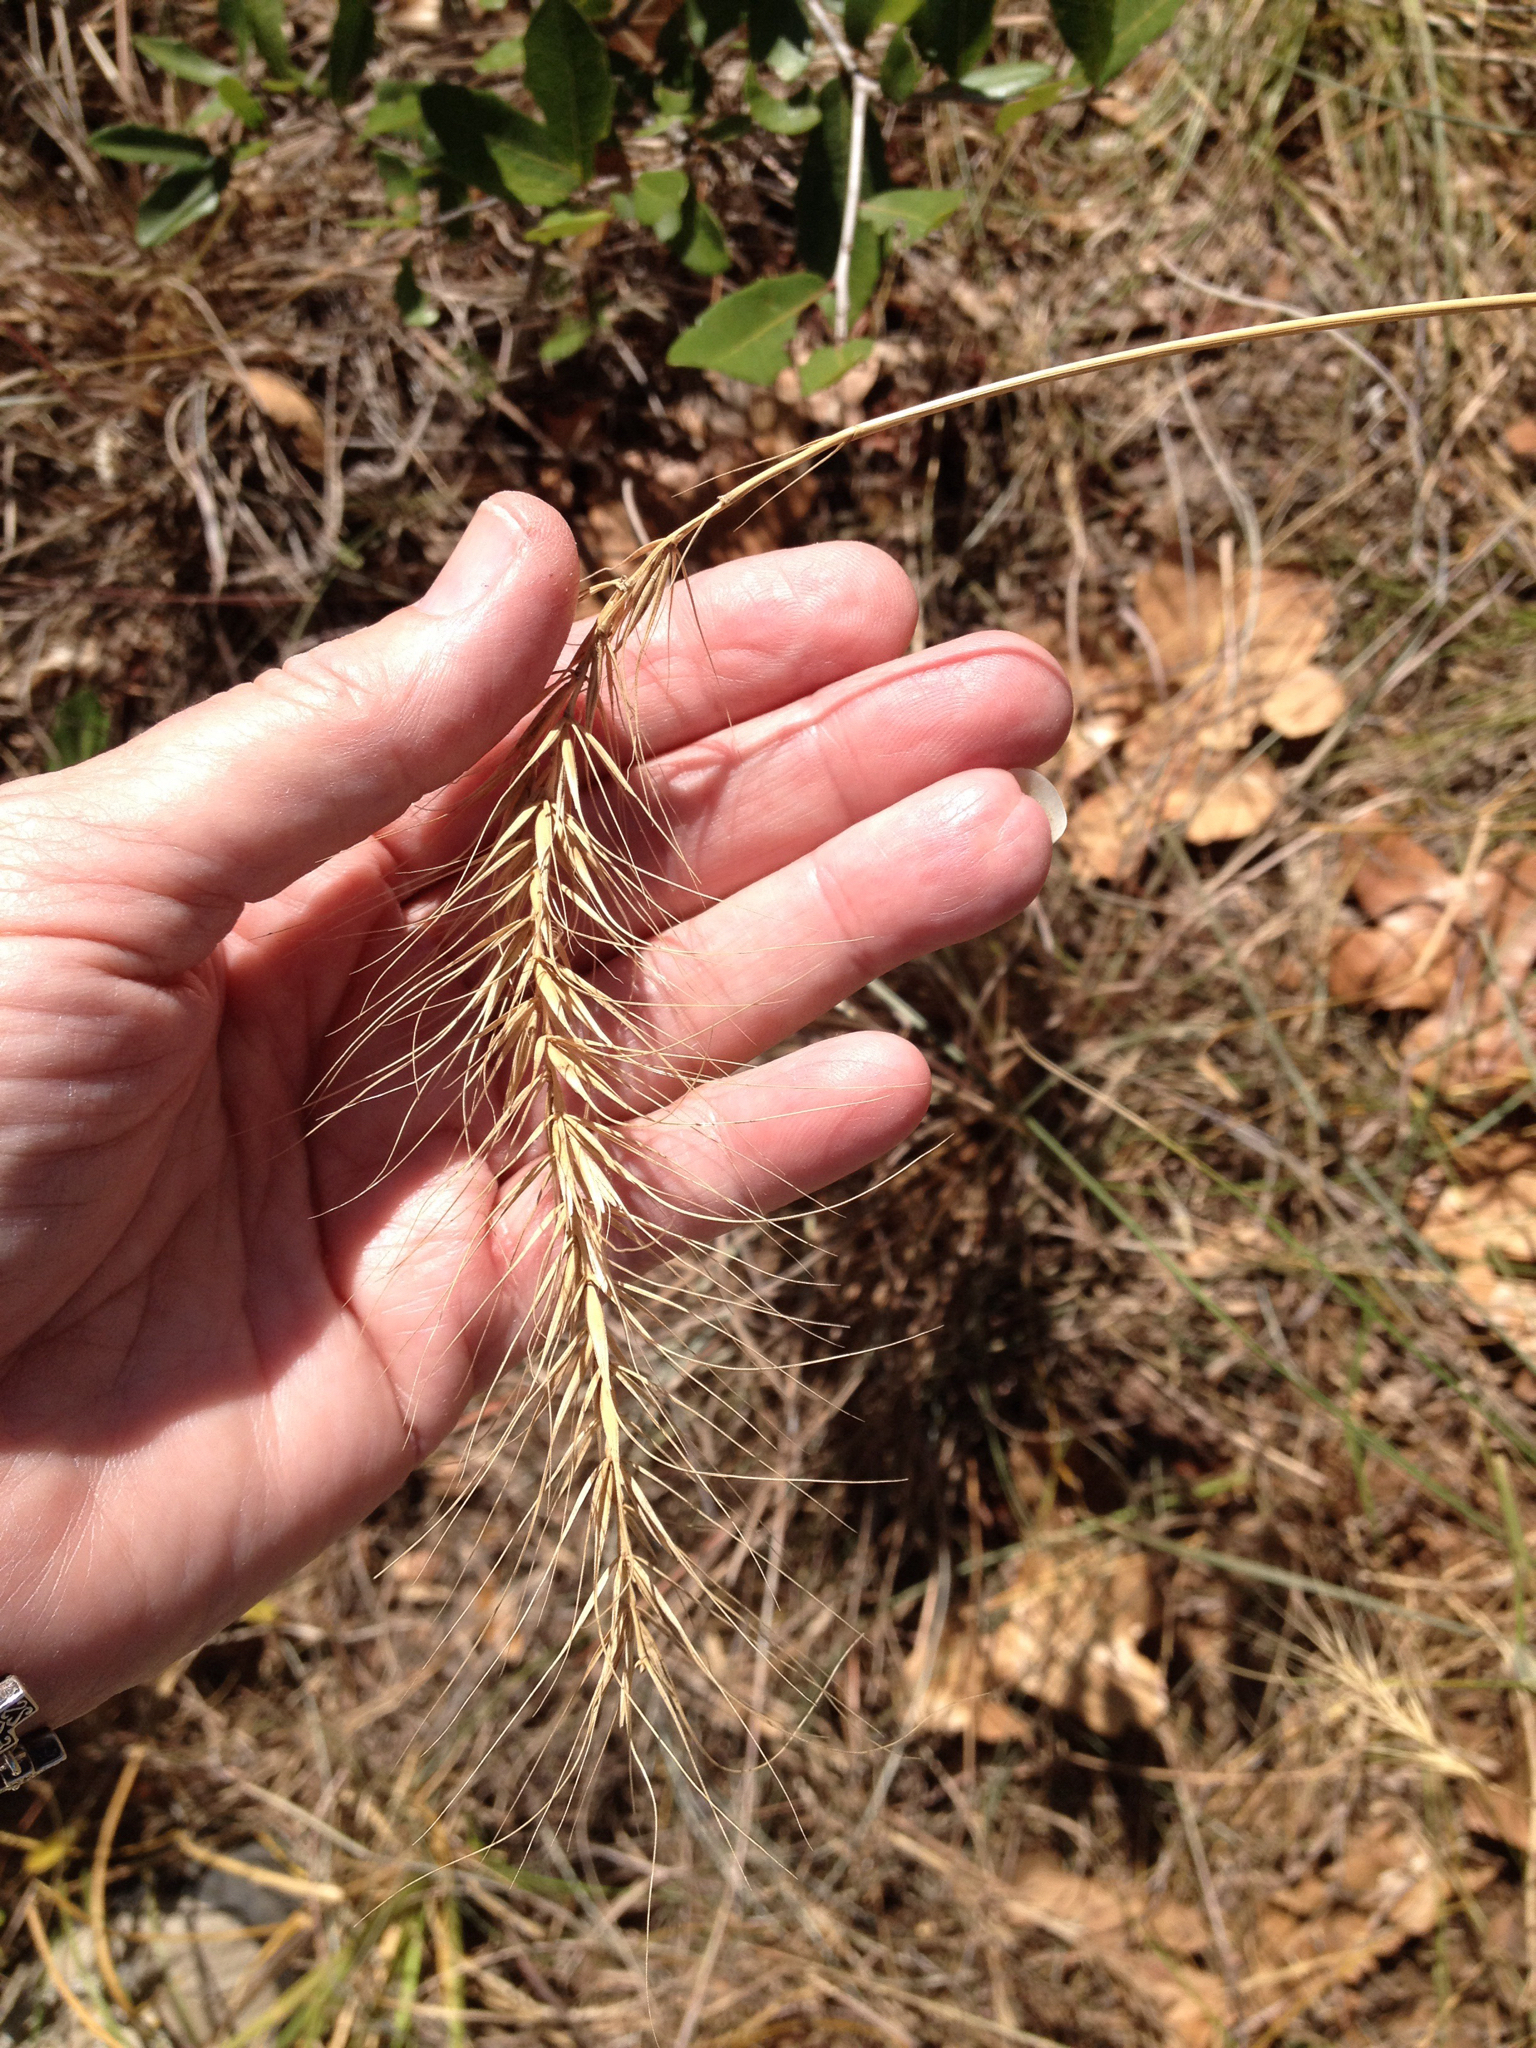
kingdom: Plantae
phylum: Tracheophyta
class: Liliopsida
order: Poales
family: Poaceae
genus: Elymus
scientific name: Elymus canadensis
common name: Canada wild rye
